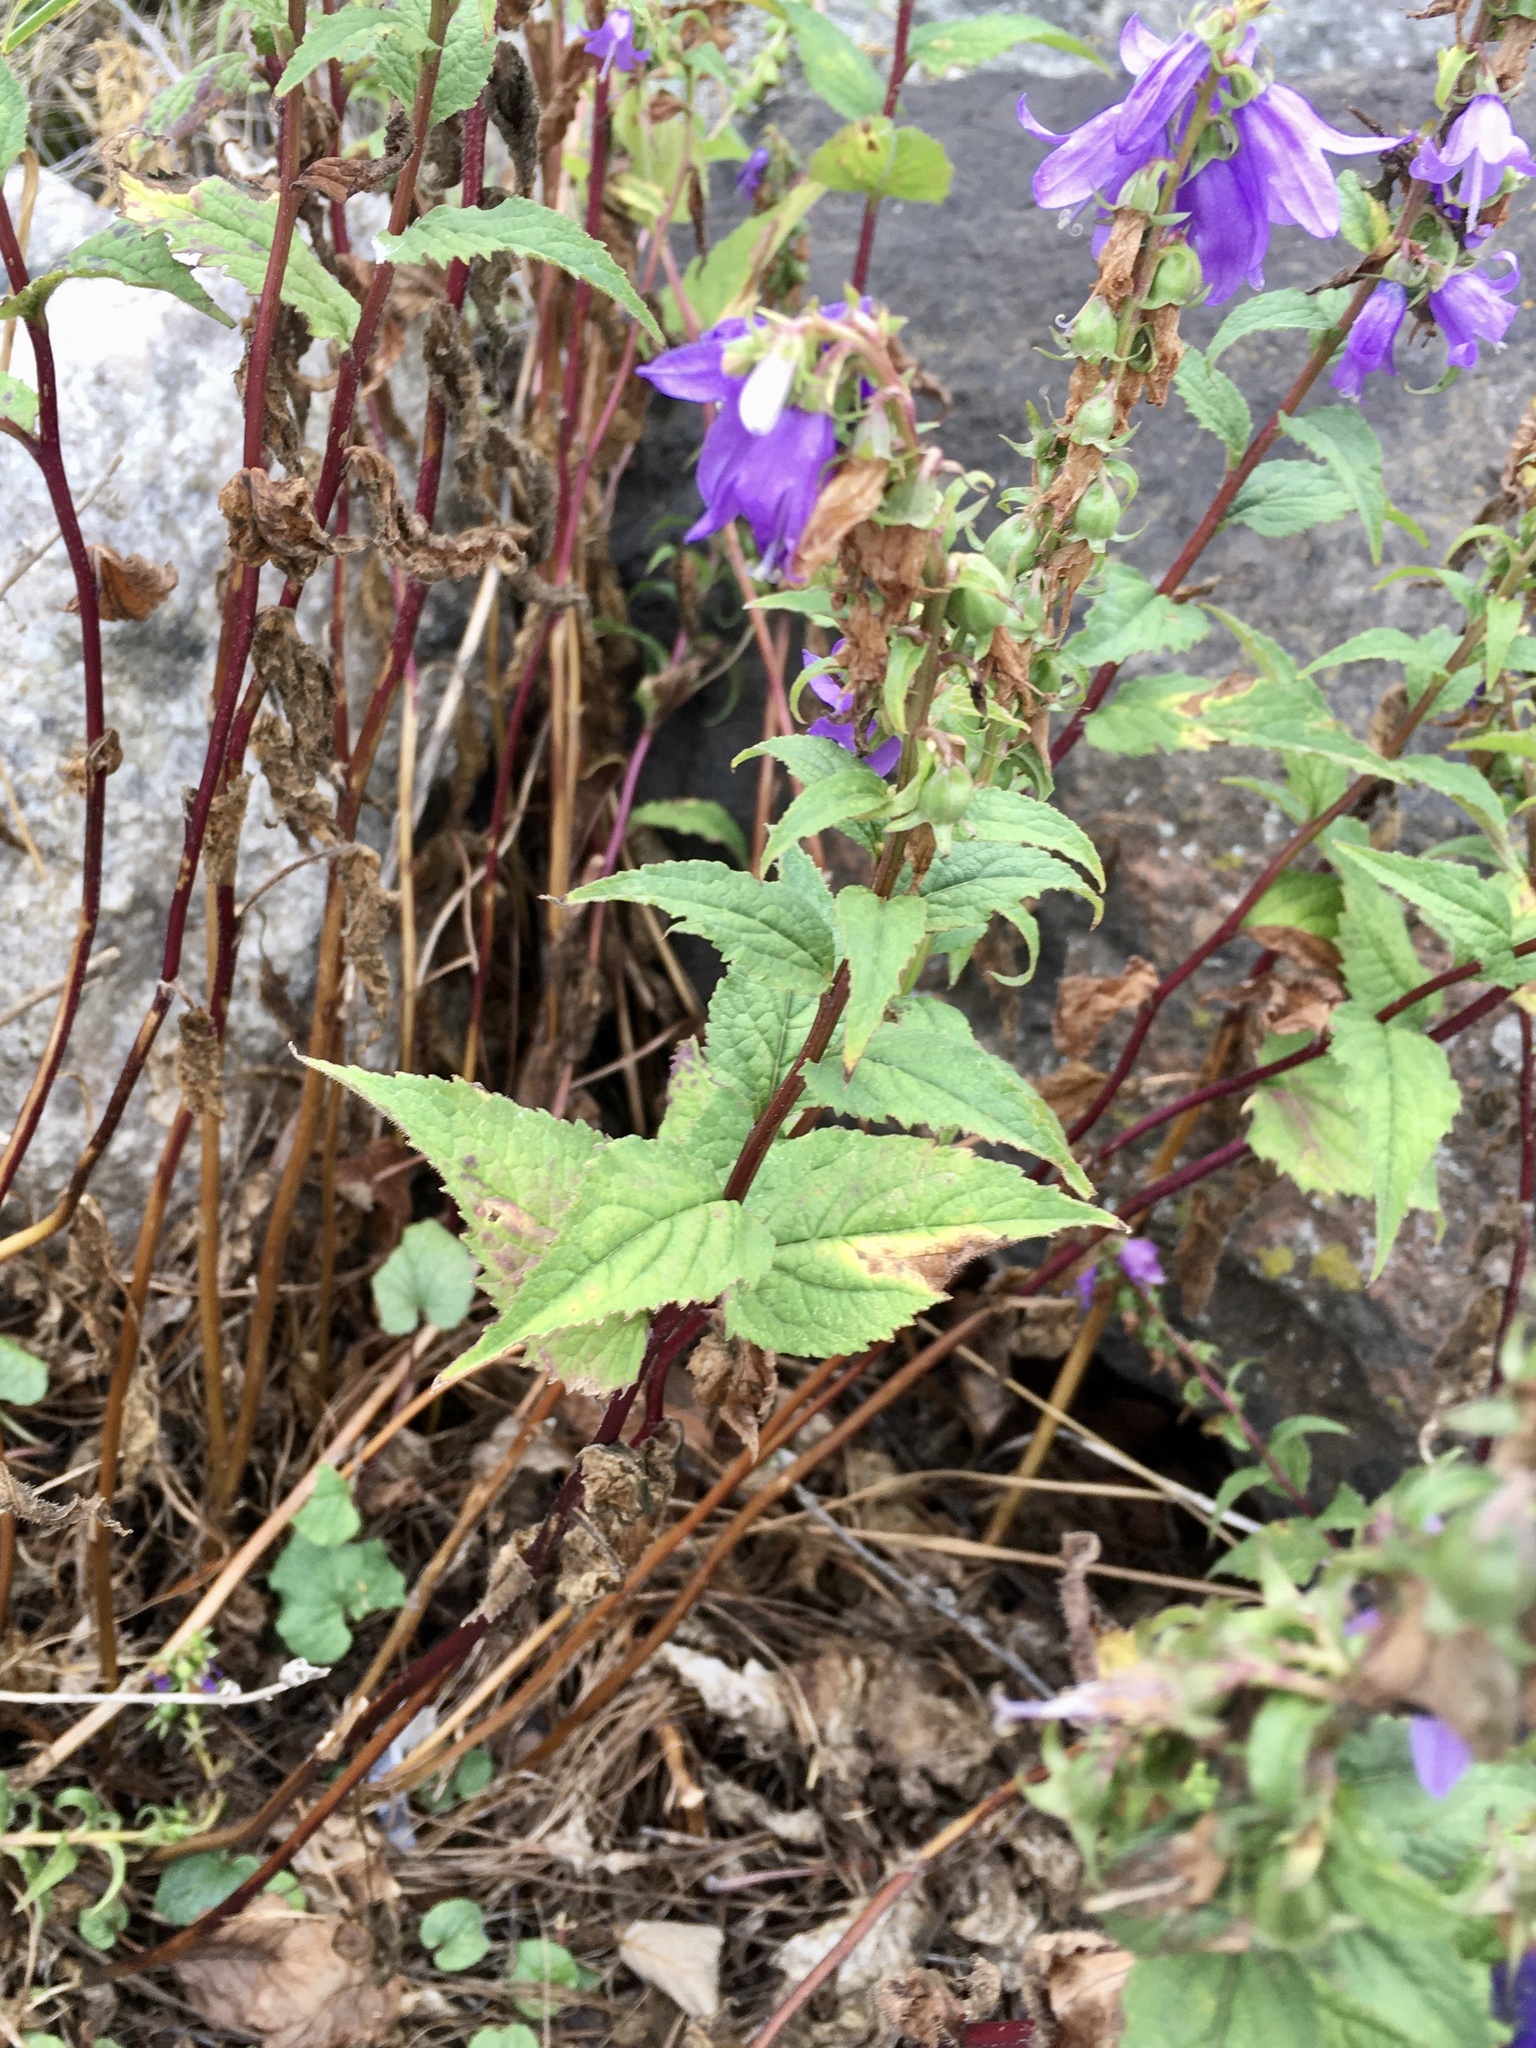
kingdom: Plantae
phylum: Tracheophyta
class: Magnoliopsida
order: Asterales
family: Campanulaceae
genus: Campanula
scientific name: Campanula rapunculoides
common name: Creeping bellflower
